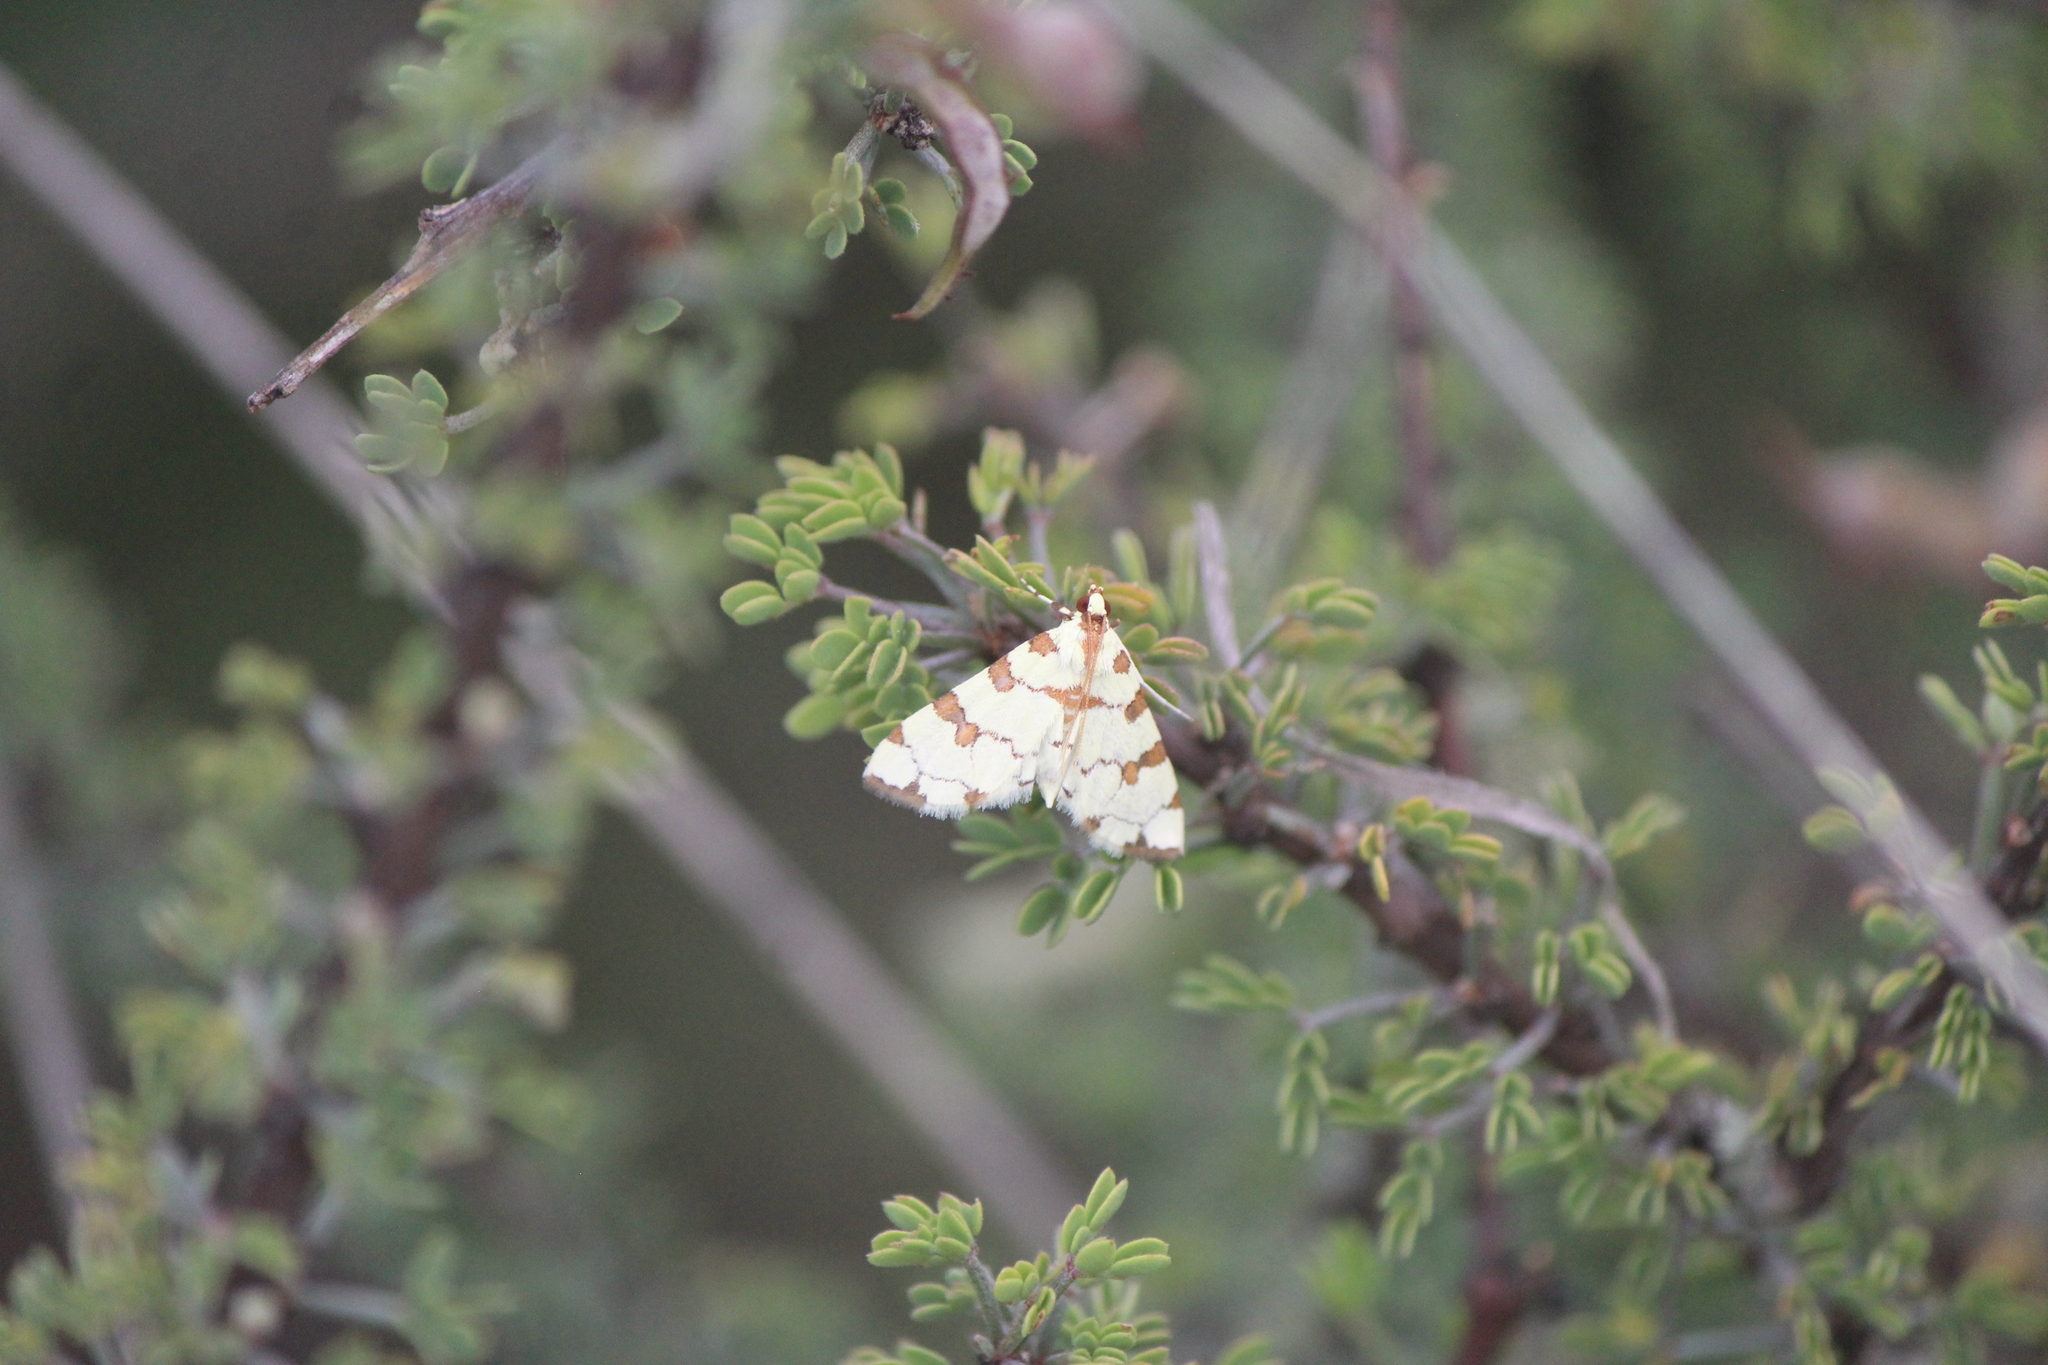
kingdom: Animalia
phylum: Arthropoda
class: Insecta
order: Lepidoptera
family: Crambidae
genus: Conchylodes
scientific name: Conchylodes
